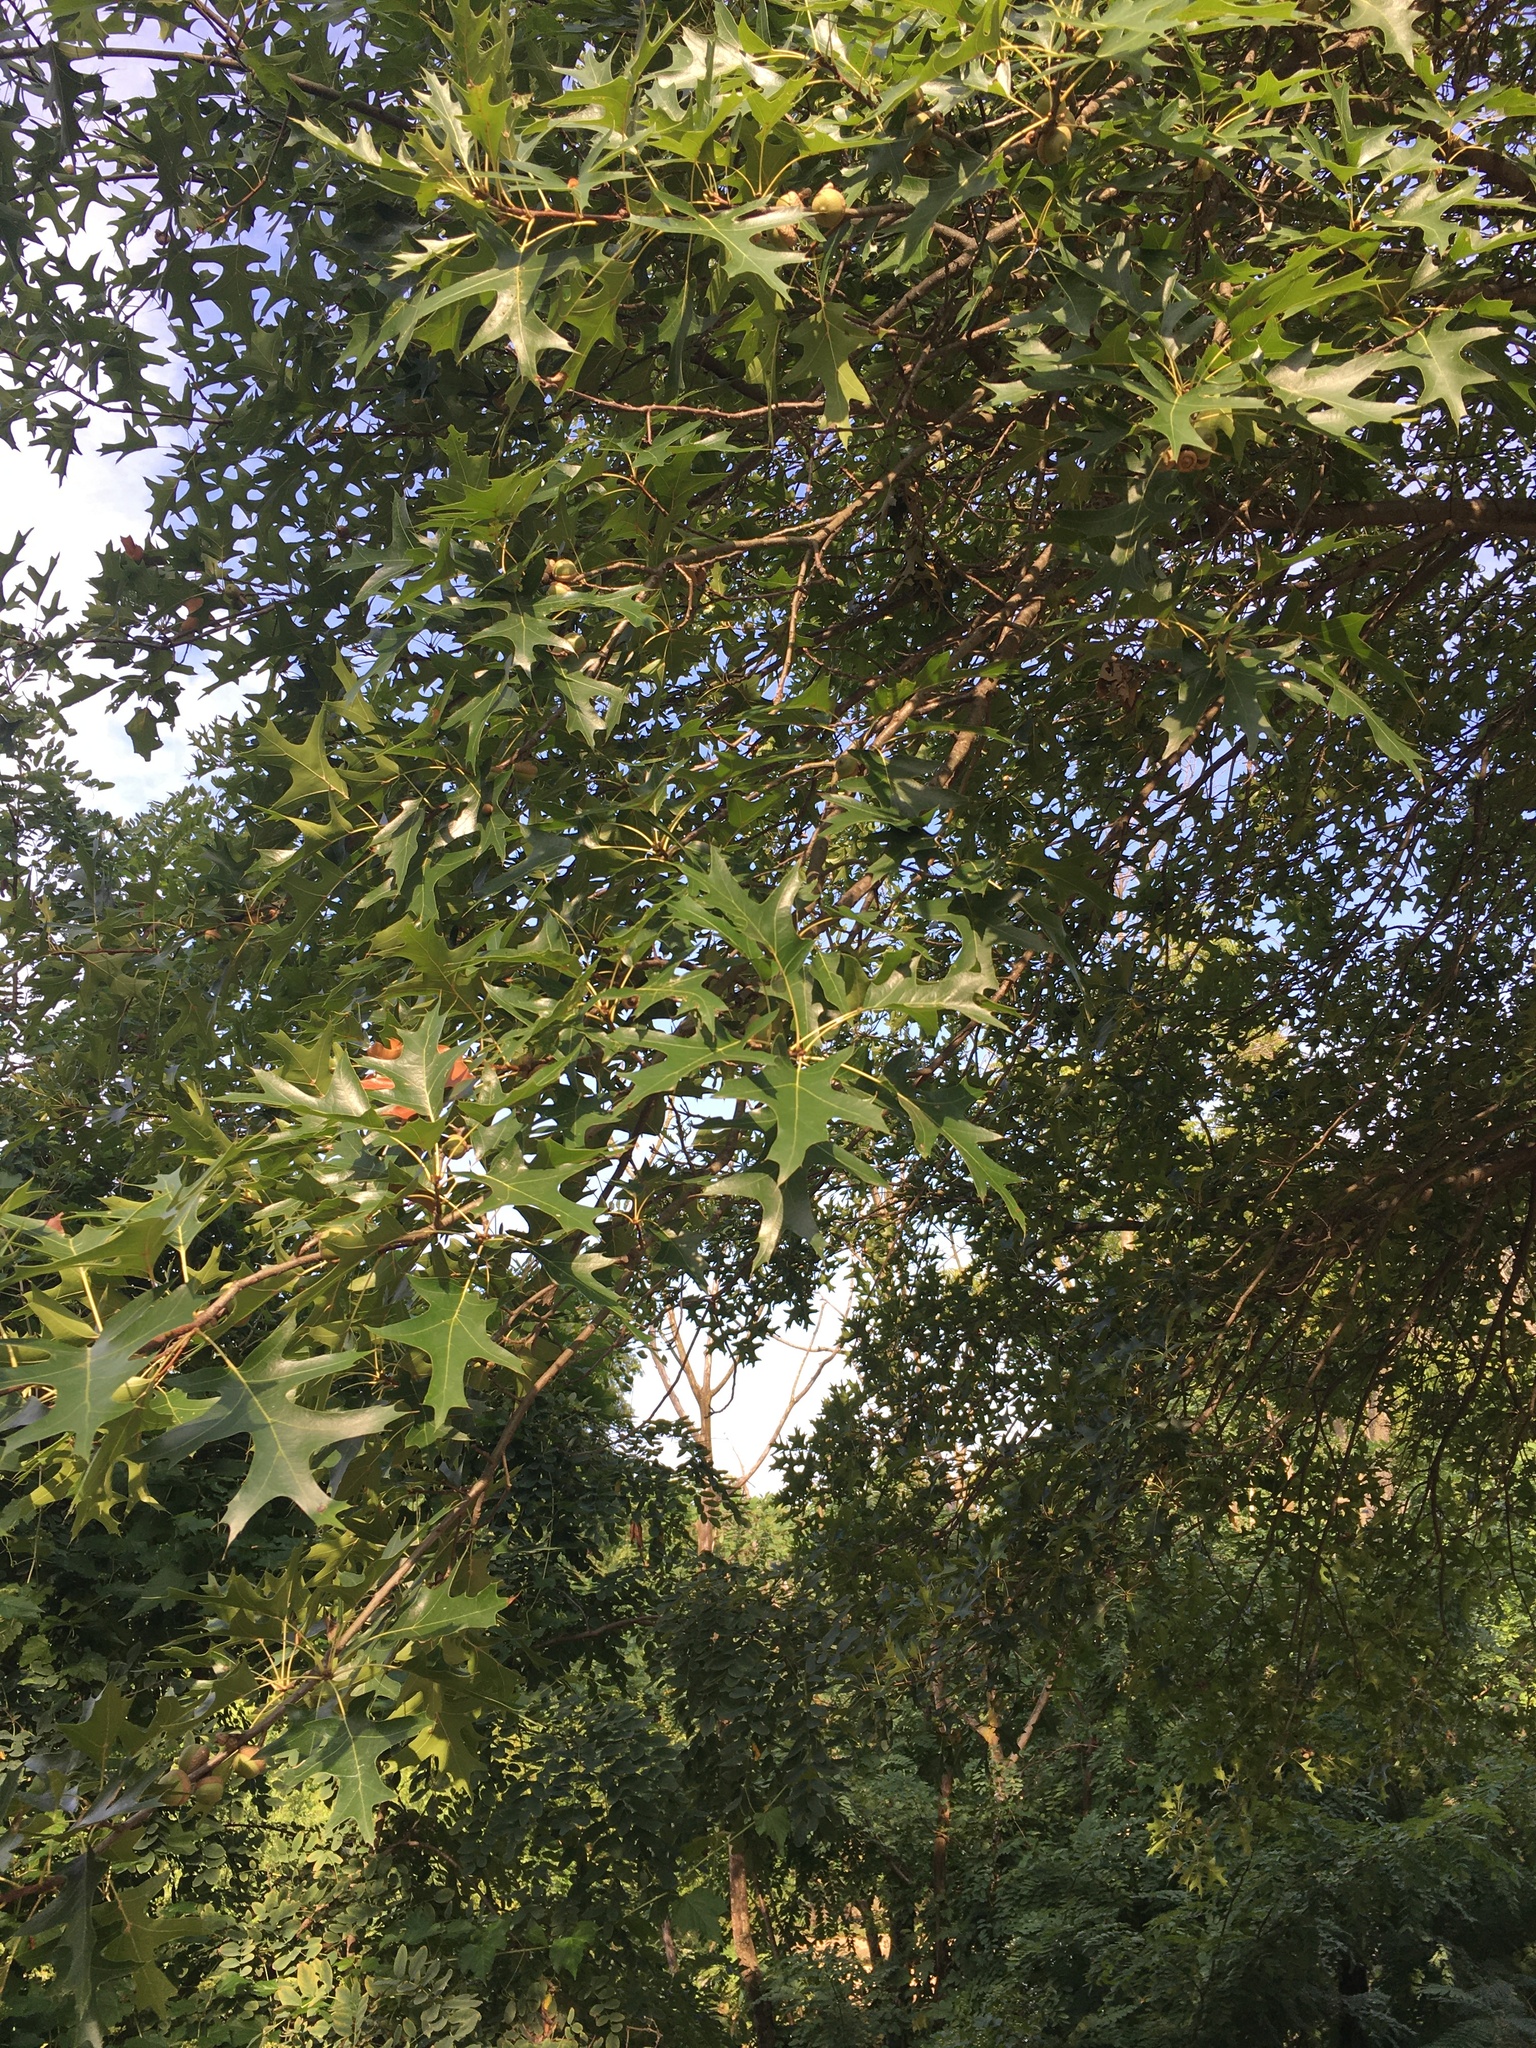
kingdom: Plantae
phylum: Tracheophyta
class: Magnoliopsida
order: Fagales
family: Fagaceae
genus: Quercus
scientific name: Quercus palustris
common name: Pin oak
